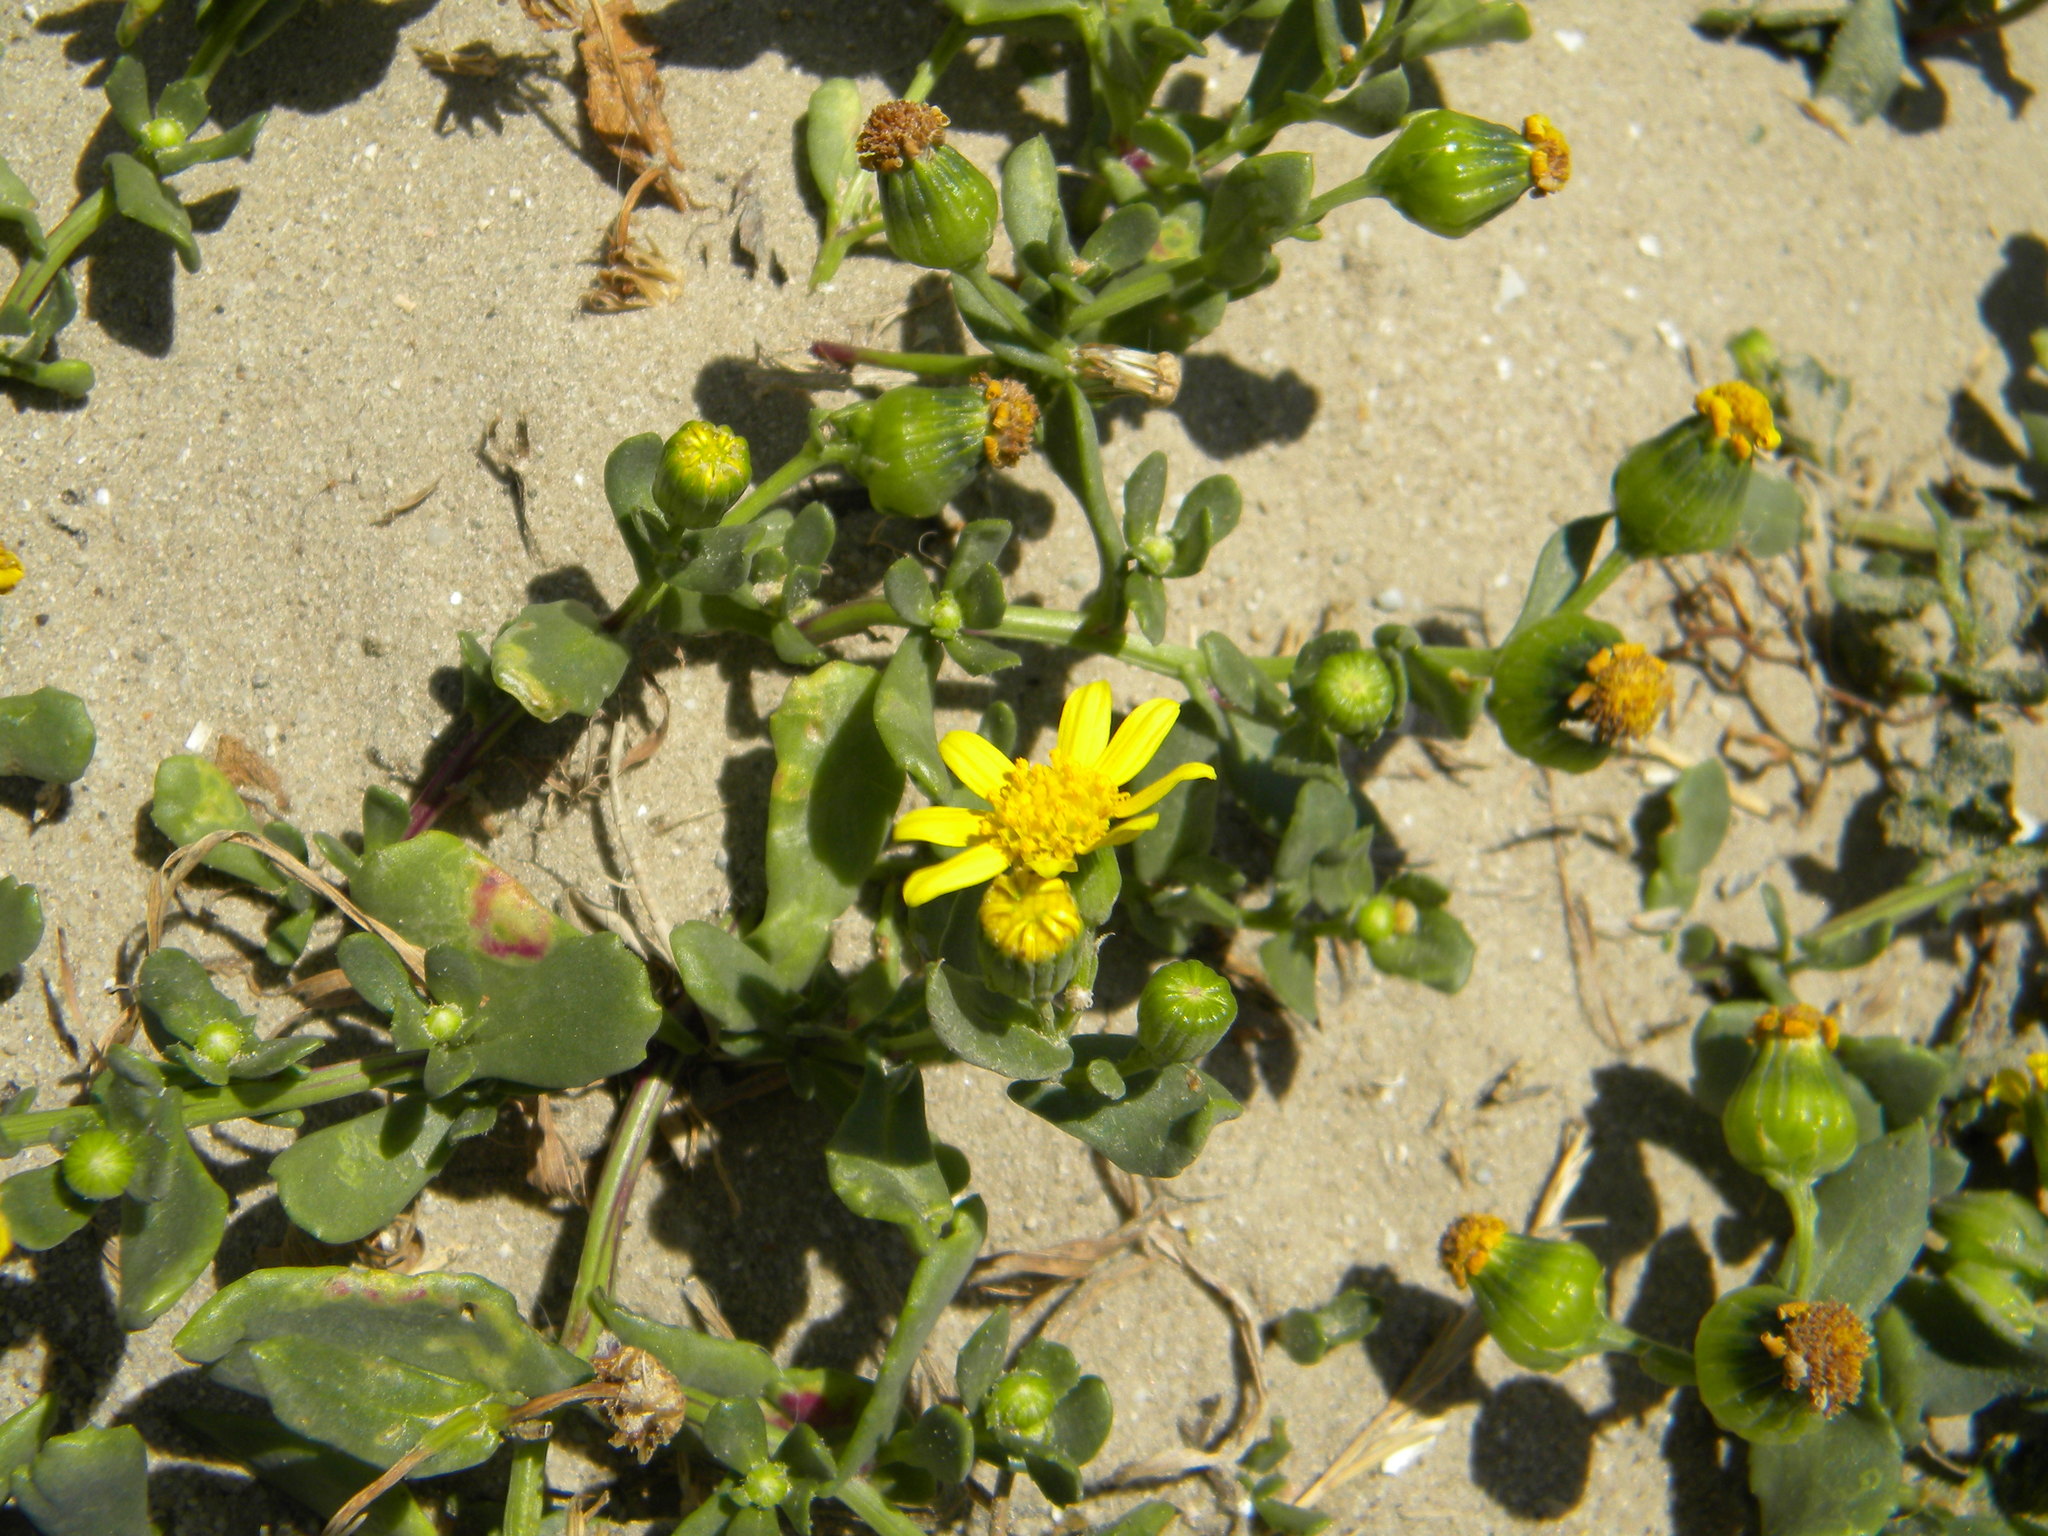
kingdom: Plantae
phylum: Tracheophyta
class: Magnoliopsida
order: Asterales
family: Asteraceae
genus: Senecio
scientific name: Senecio maritimus
